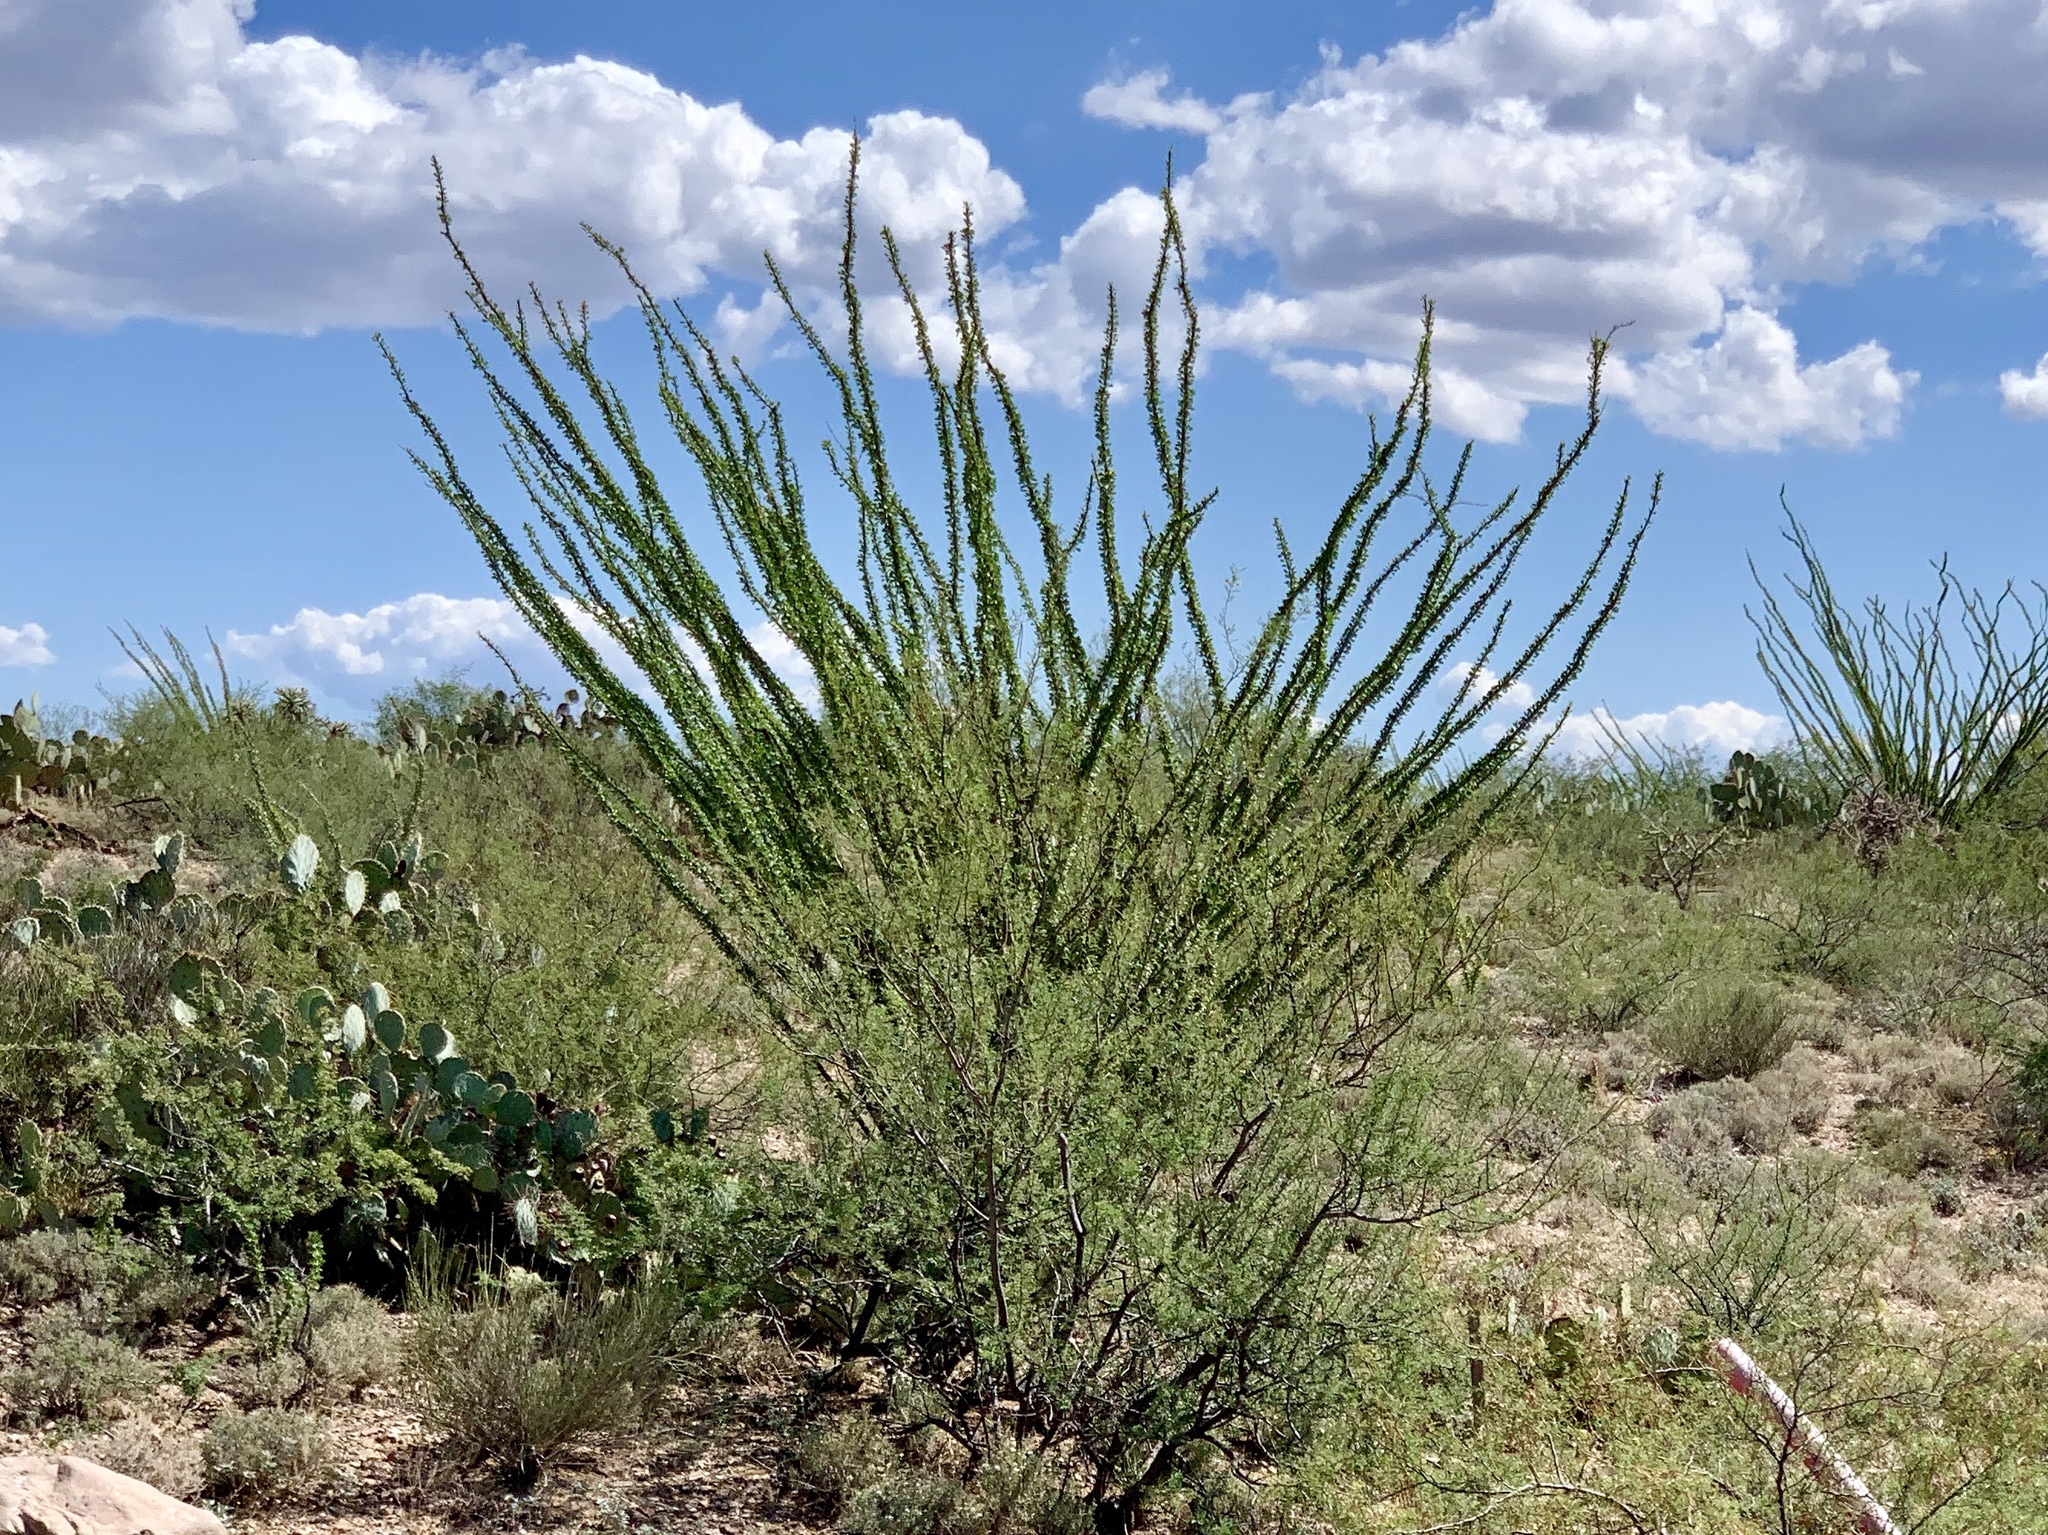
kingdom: Plantae
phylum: Tracheophyta
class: Magnoliopsida
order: Ericales
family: Fouquieriaceae
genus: Fouquieria
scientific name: Fouquieria splendens
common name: Vine-cactus
